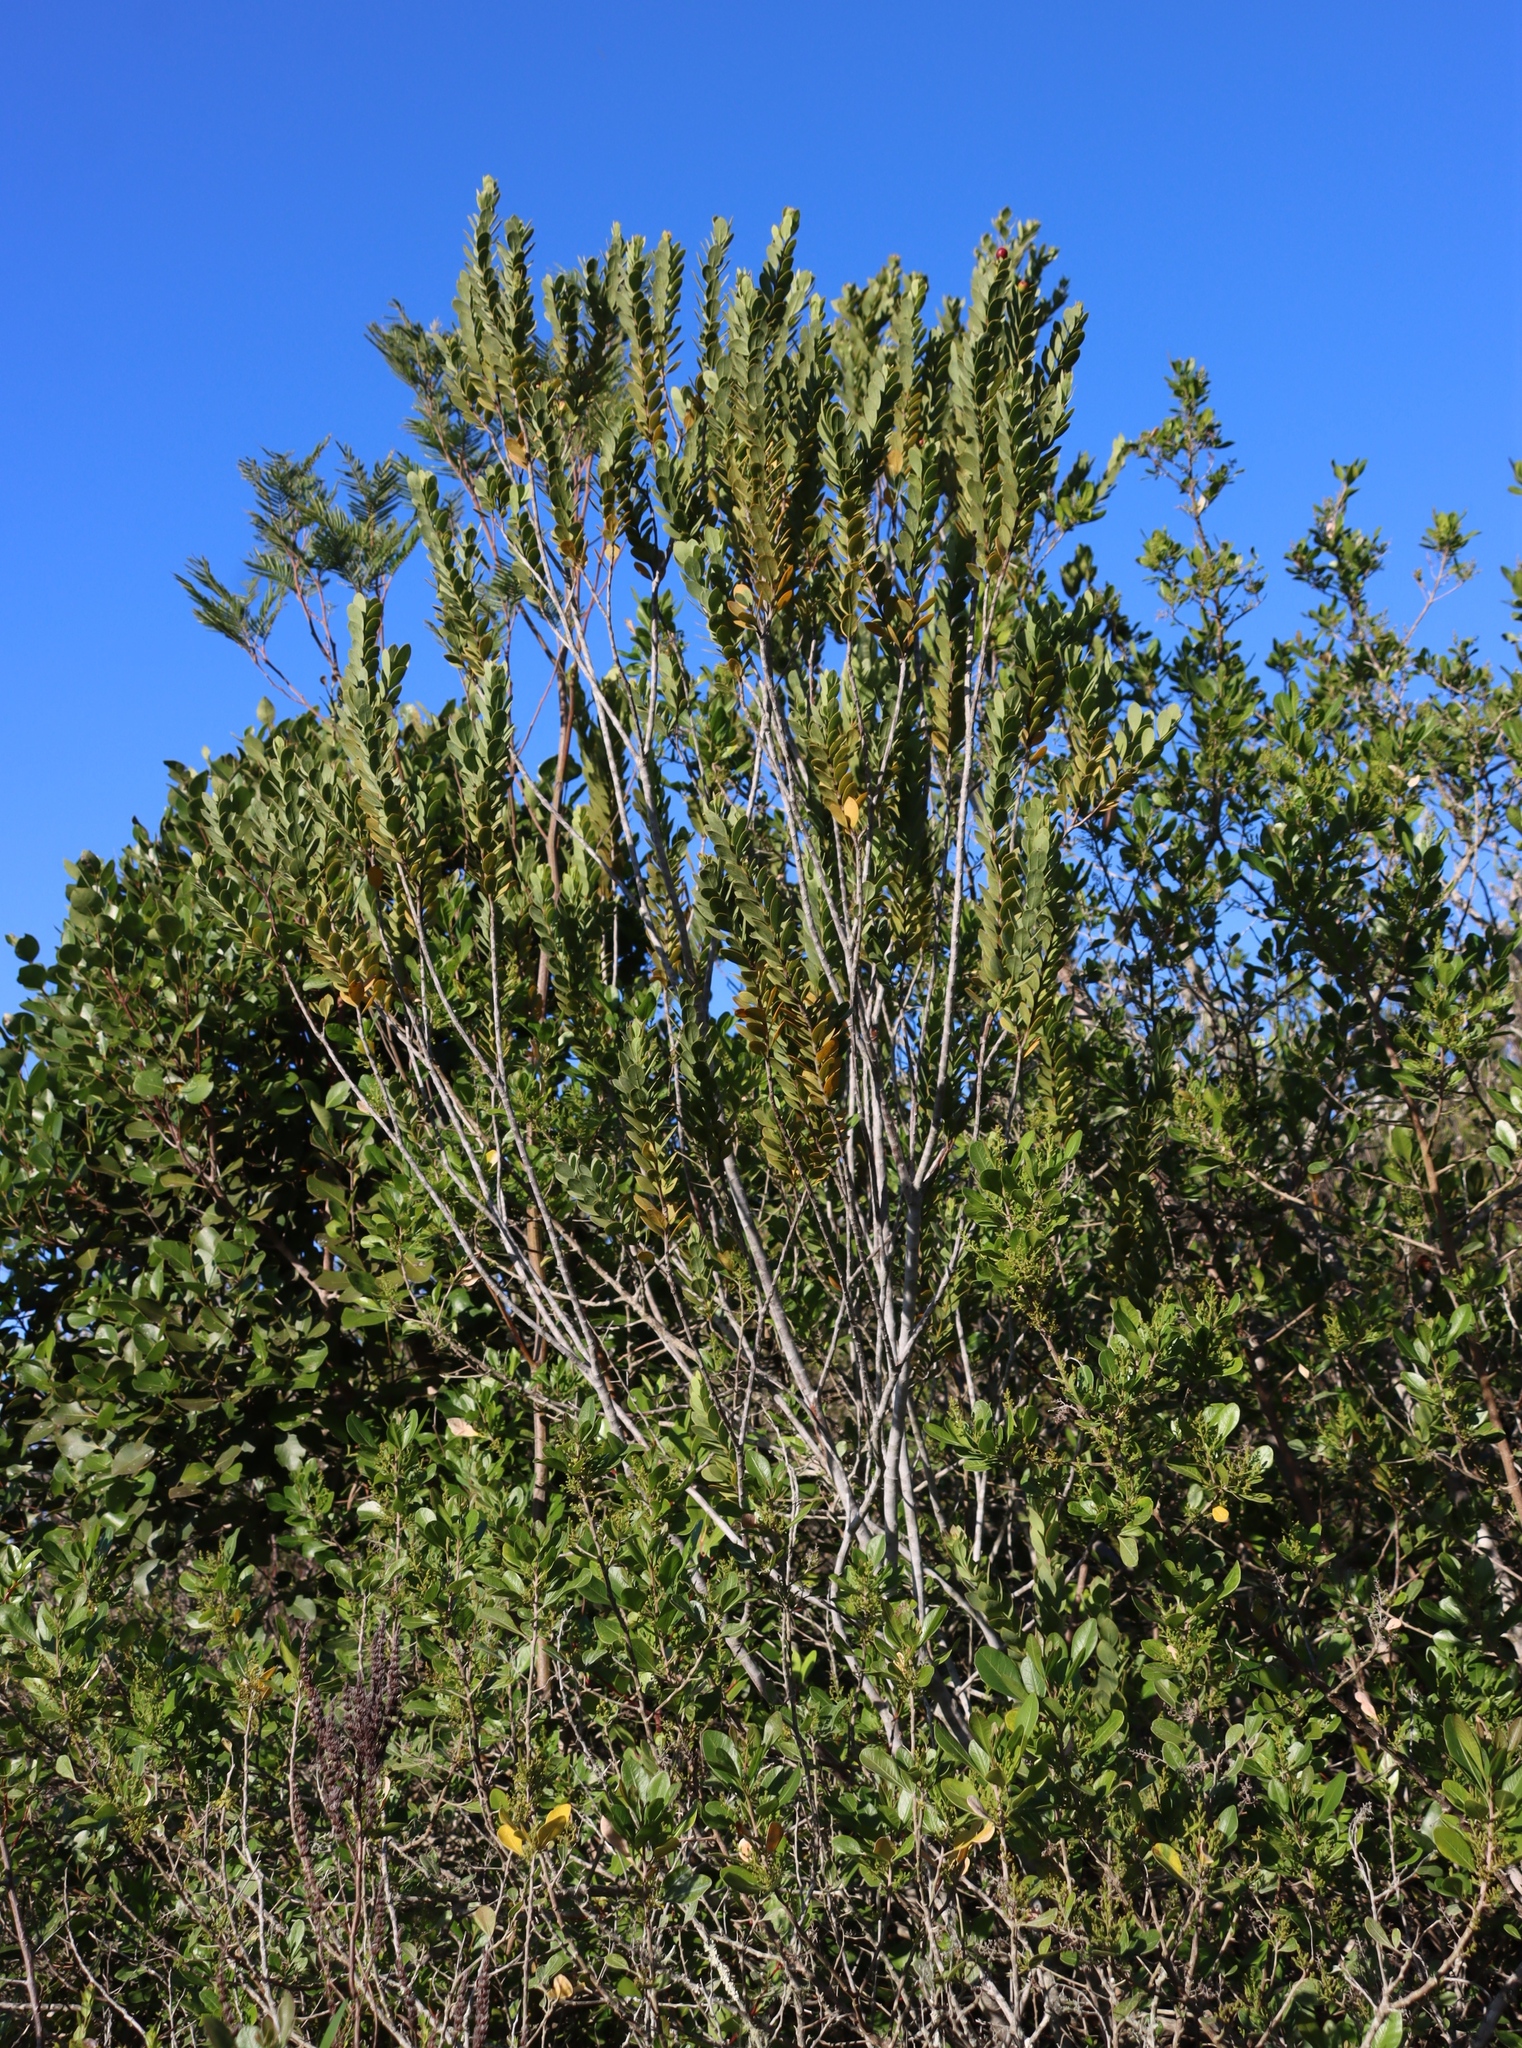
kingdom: Plantae
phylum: Tracheophyta
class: Magnoliopsida
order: Santalales
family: Santalaceae
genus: Osyris
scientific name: Osyris compressa
